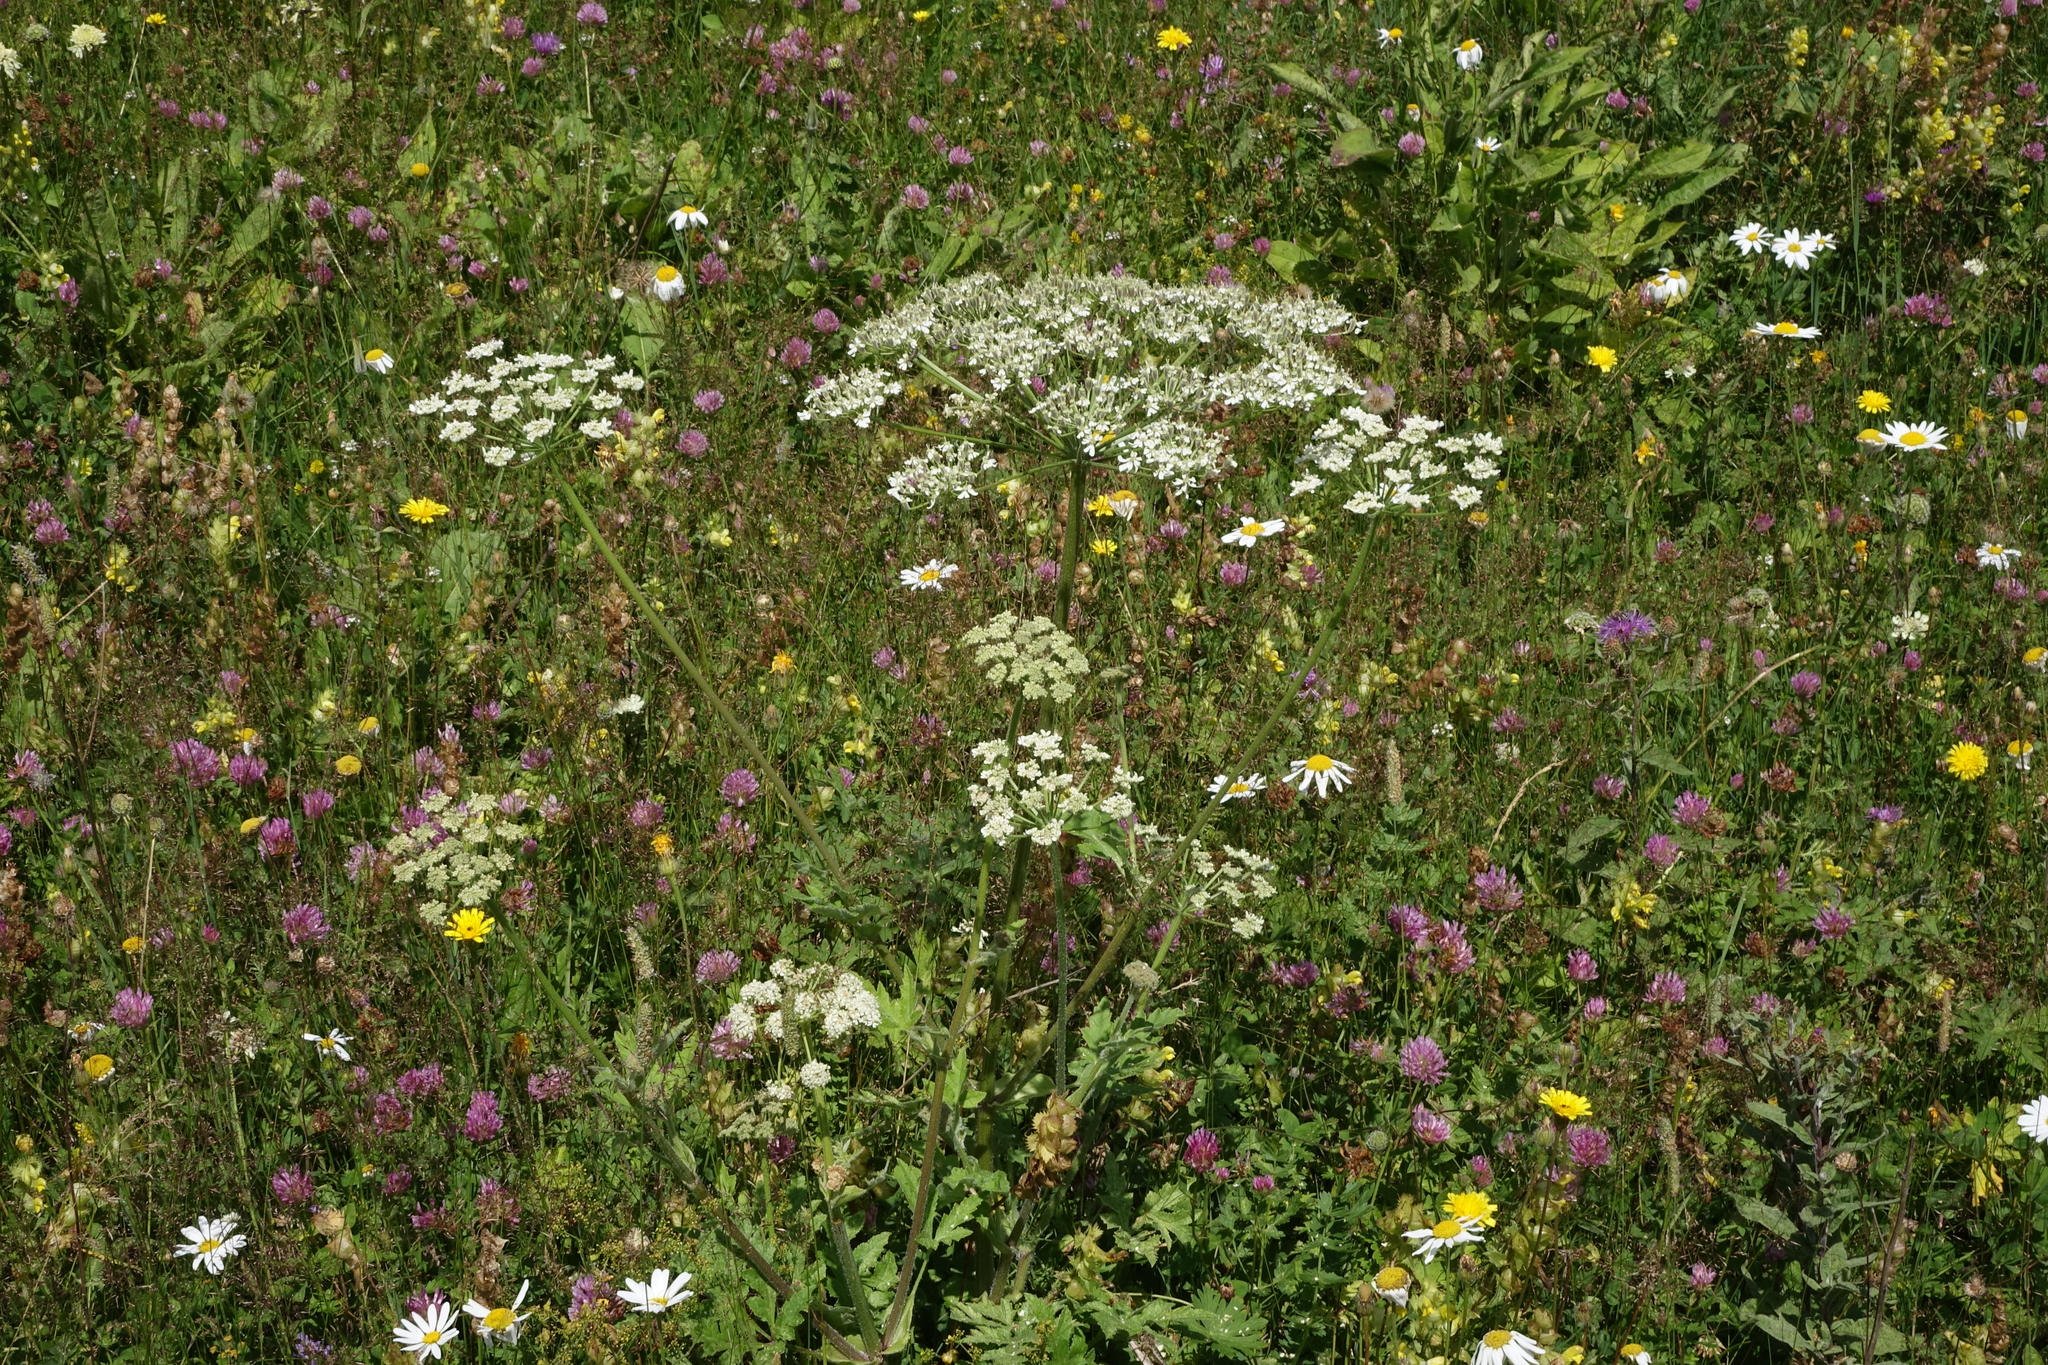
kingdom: Plantae
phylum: Tracheophyta
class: Magnoliopsida
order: Apiales
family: Apiaceae
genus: Heracleum
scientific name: Heracleum grandiflorum
